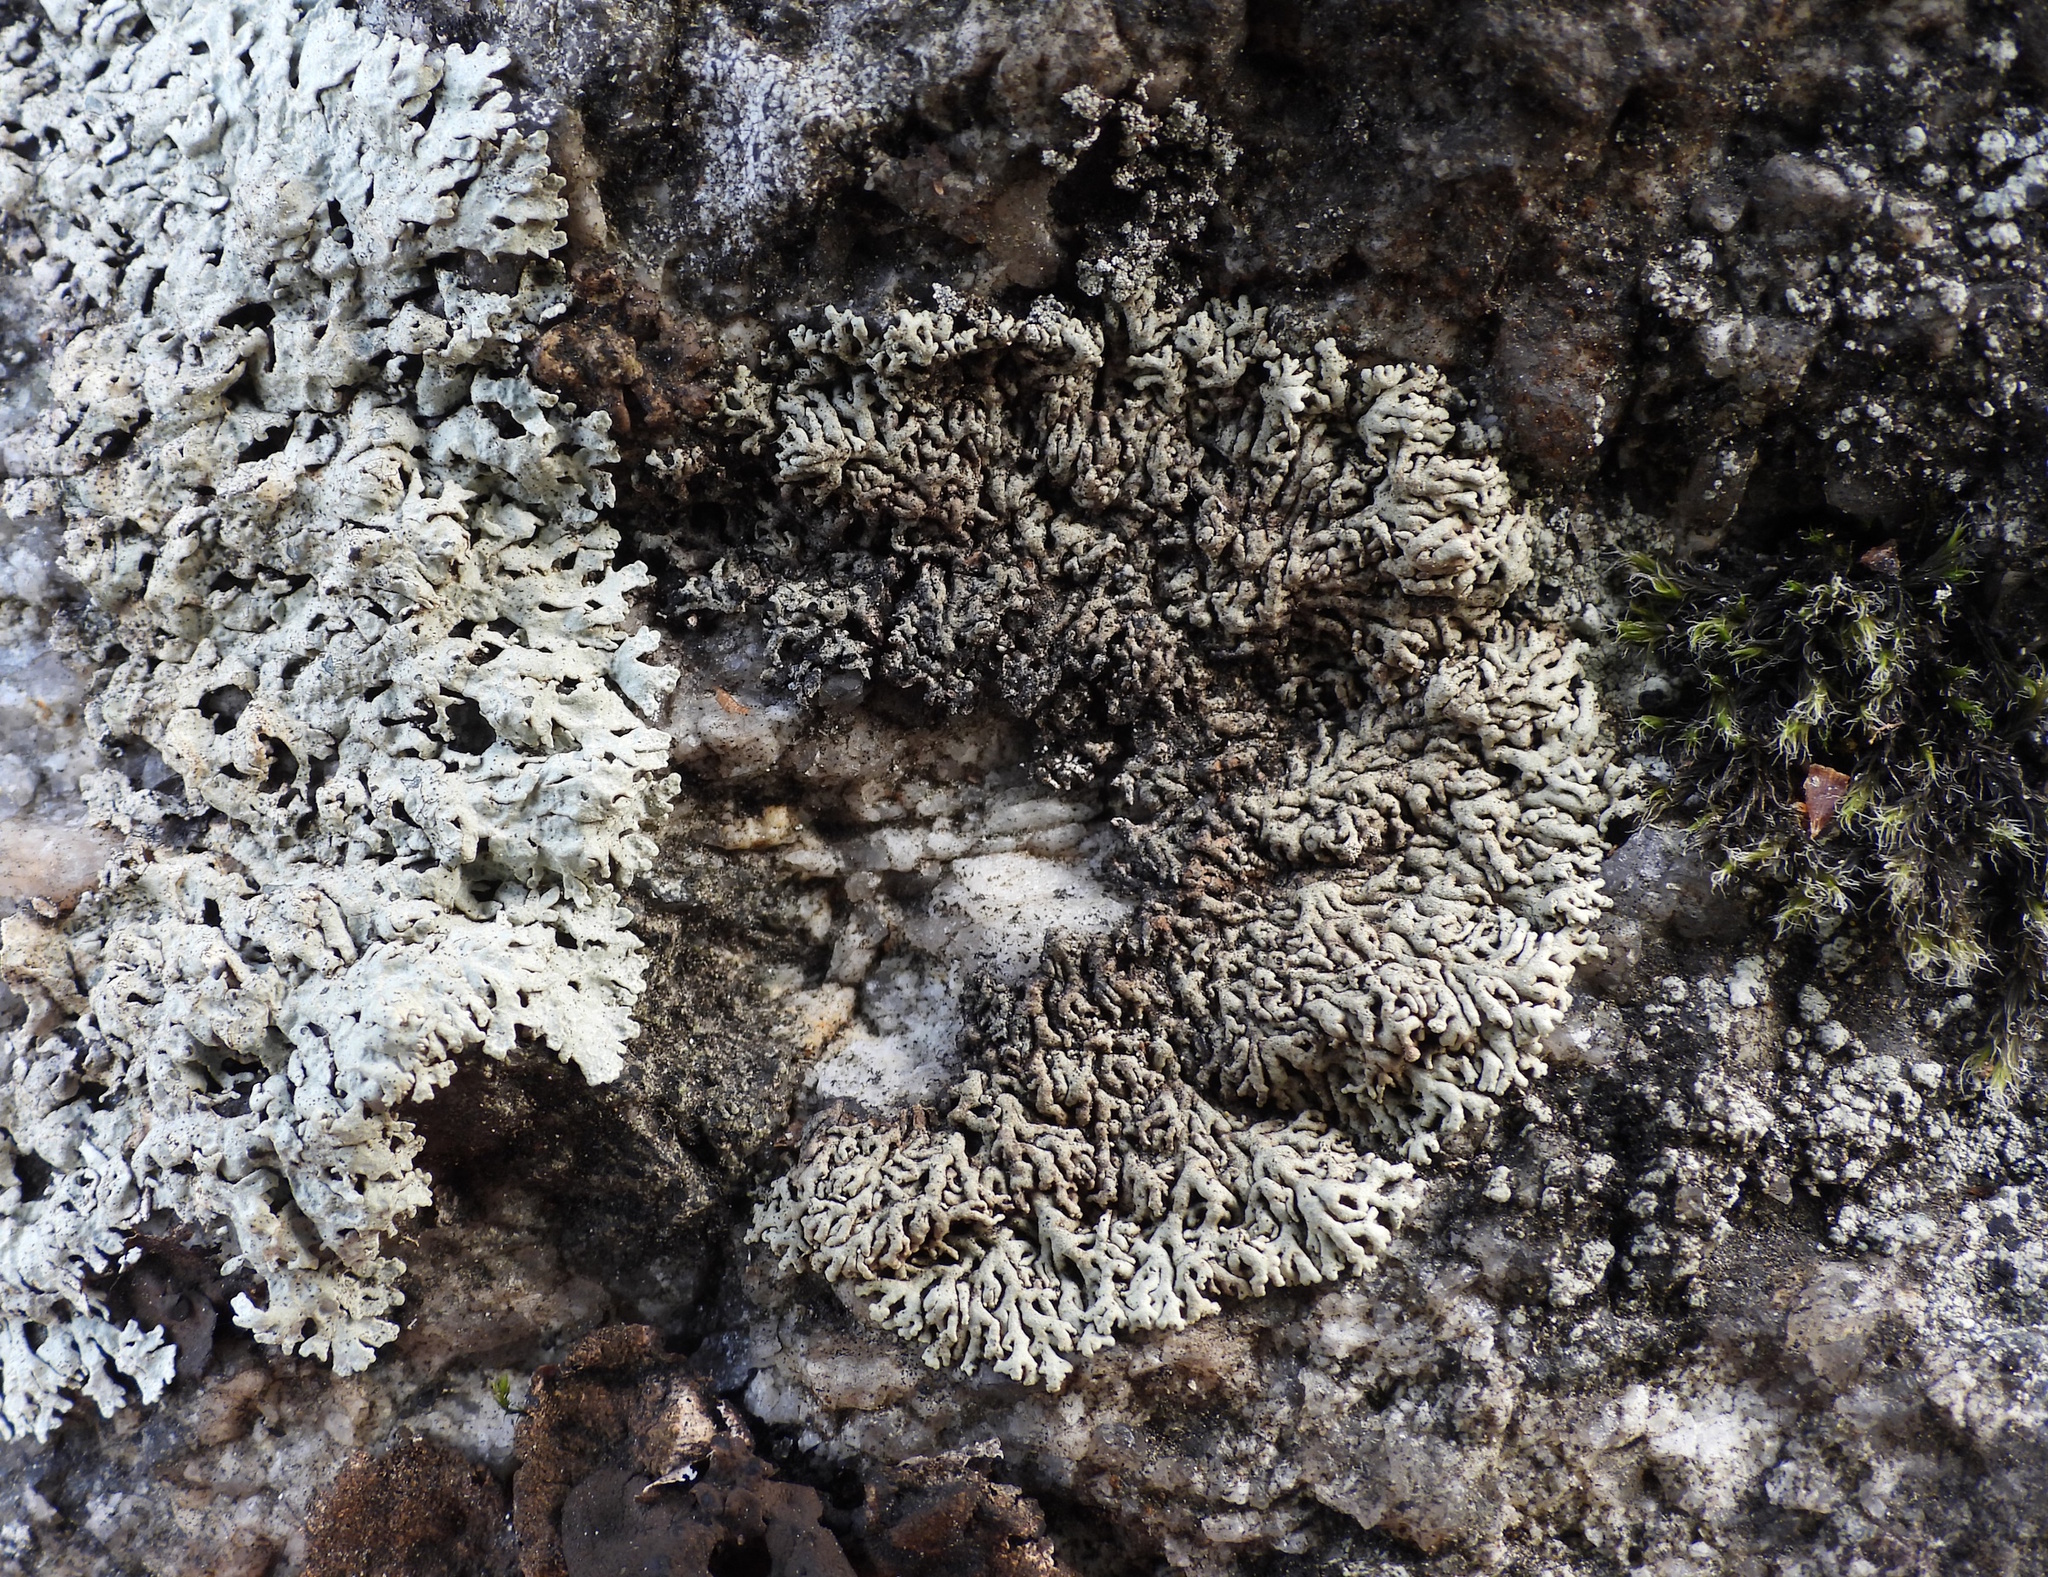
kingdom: Fungi
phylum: Ascomycota
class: Lecanoromycetes
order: Lecanorales
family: Parmeliaceae
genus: Arctoparmelia
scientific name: Arctoparmelia incurva
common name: Bent ring lichen
